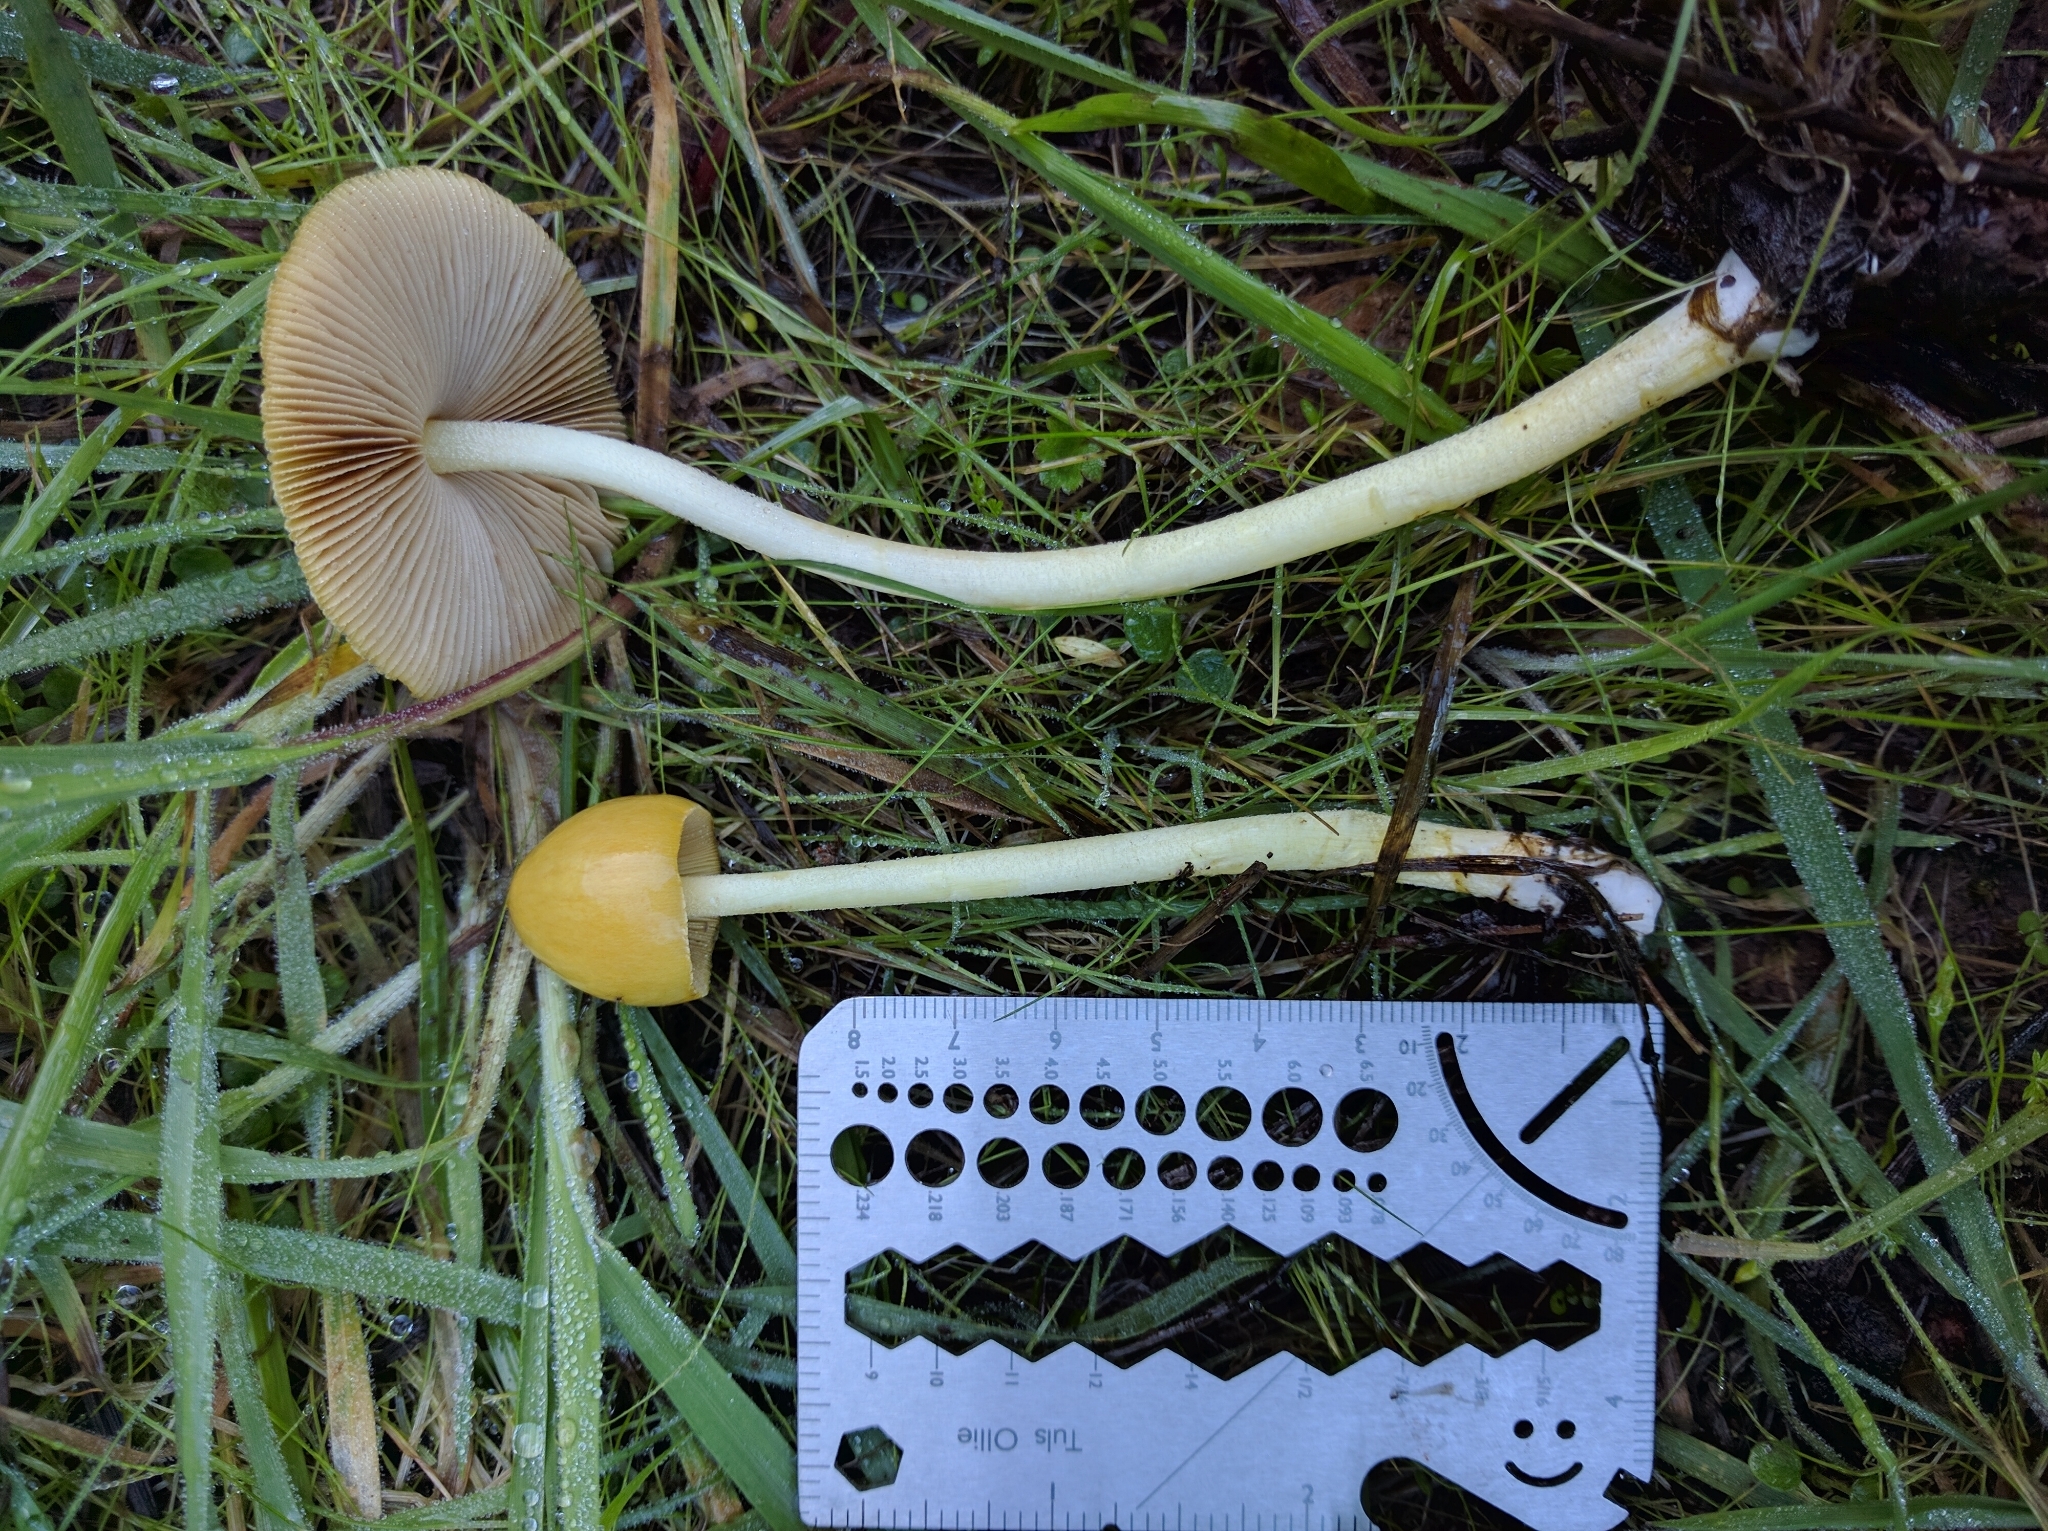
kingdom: Fungi
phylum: Basidiomycota
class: Agaricomycetes
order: Agaricales
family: Bolbitiaceae
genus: Bolbitius
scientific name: Bolbitius titubans
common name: Yellow fieldcap
